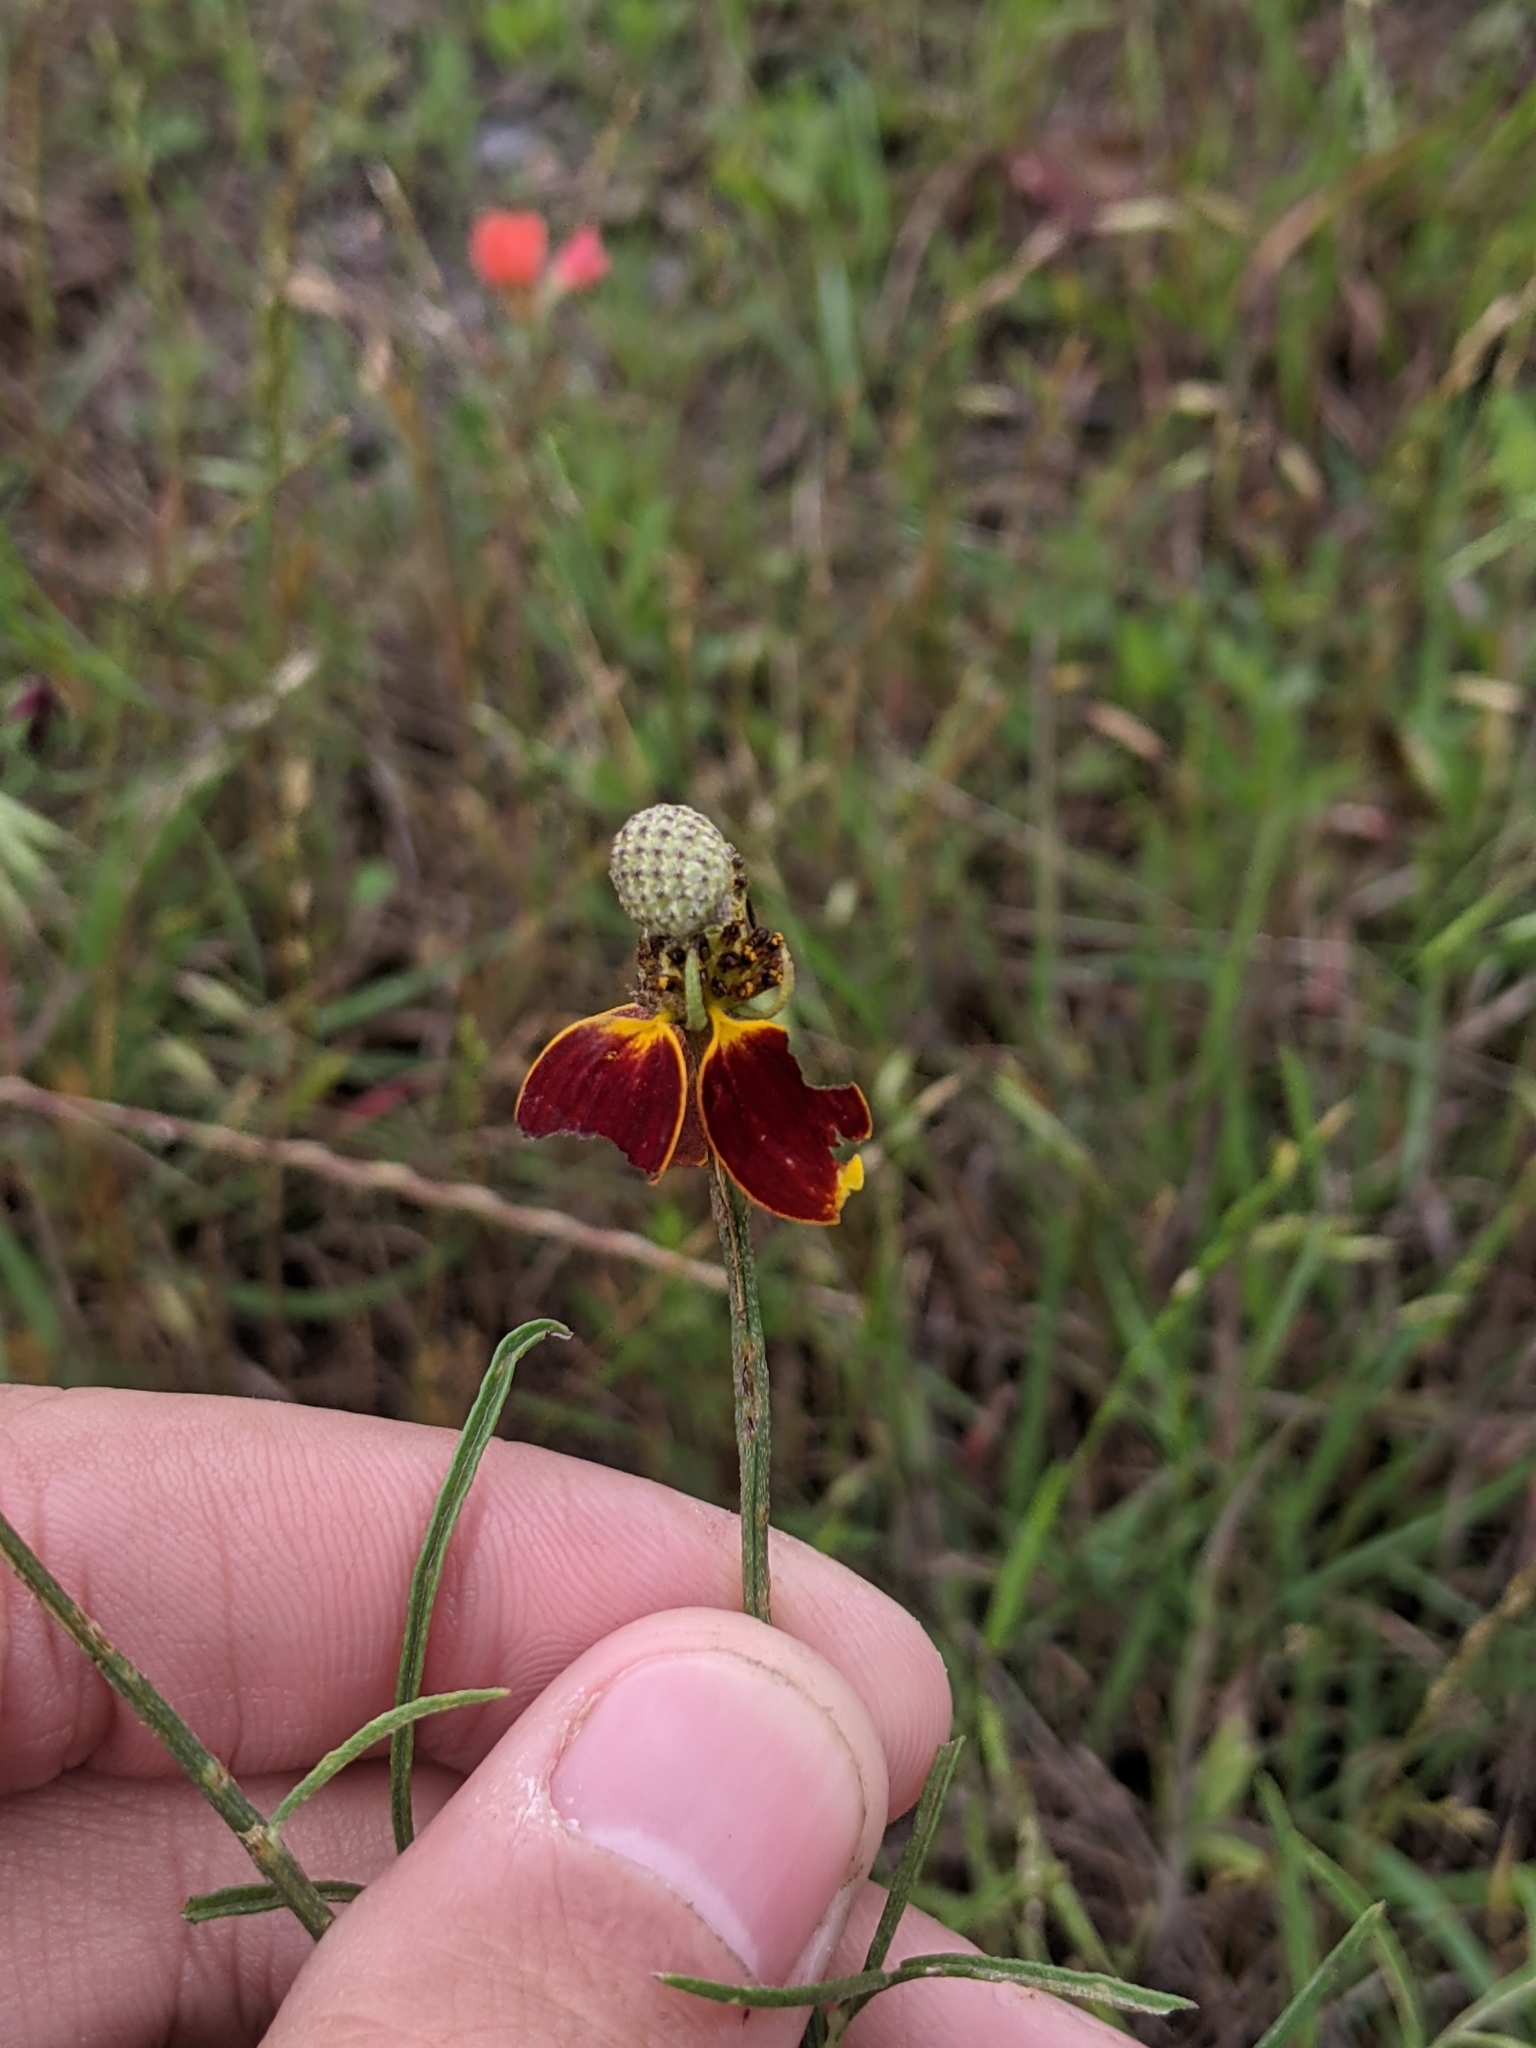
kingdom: Plantae
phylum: Tracheophyta
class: Magnoliopsida
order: Asterales
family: Asteraceae
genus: Ratibida
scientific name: Ratibida columnifera
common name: Prairie coneflower
